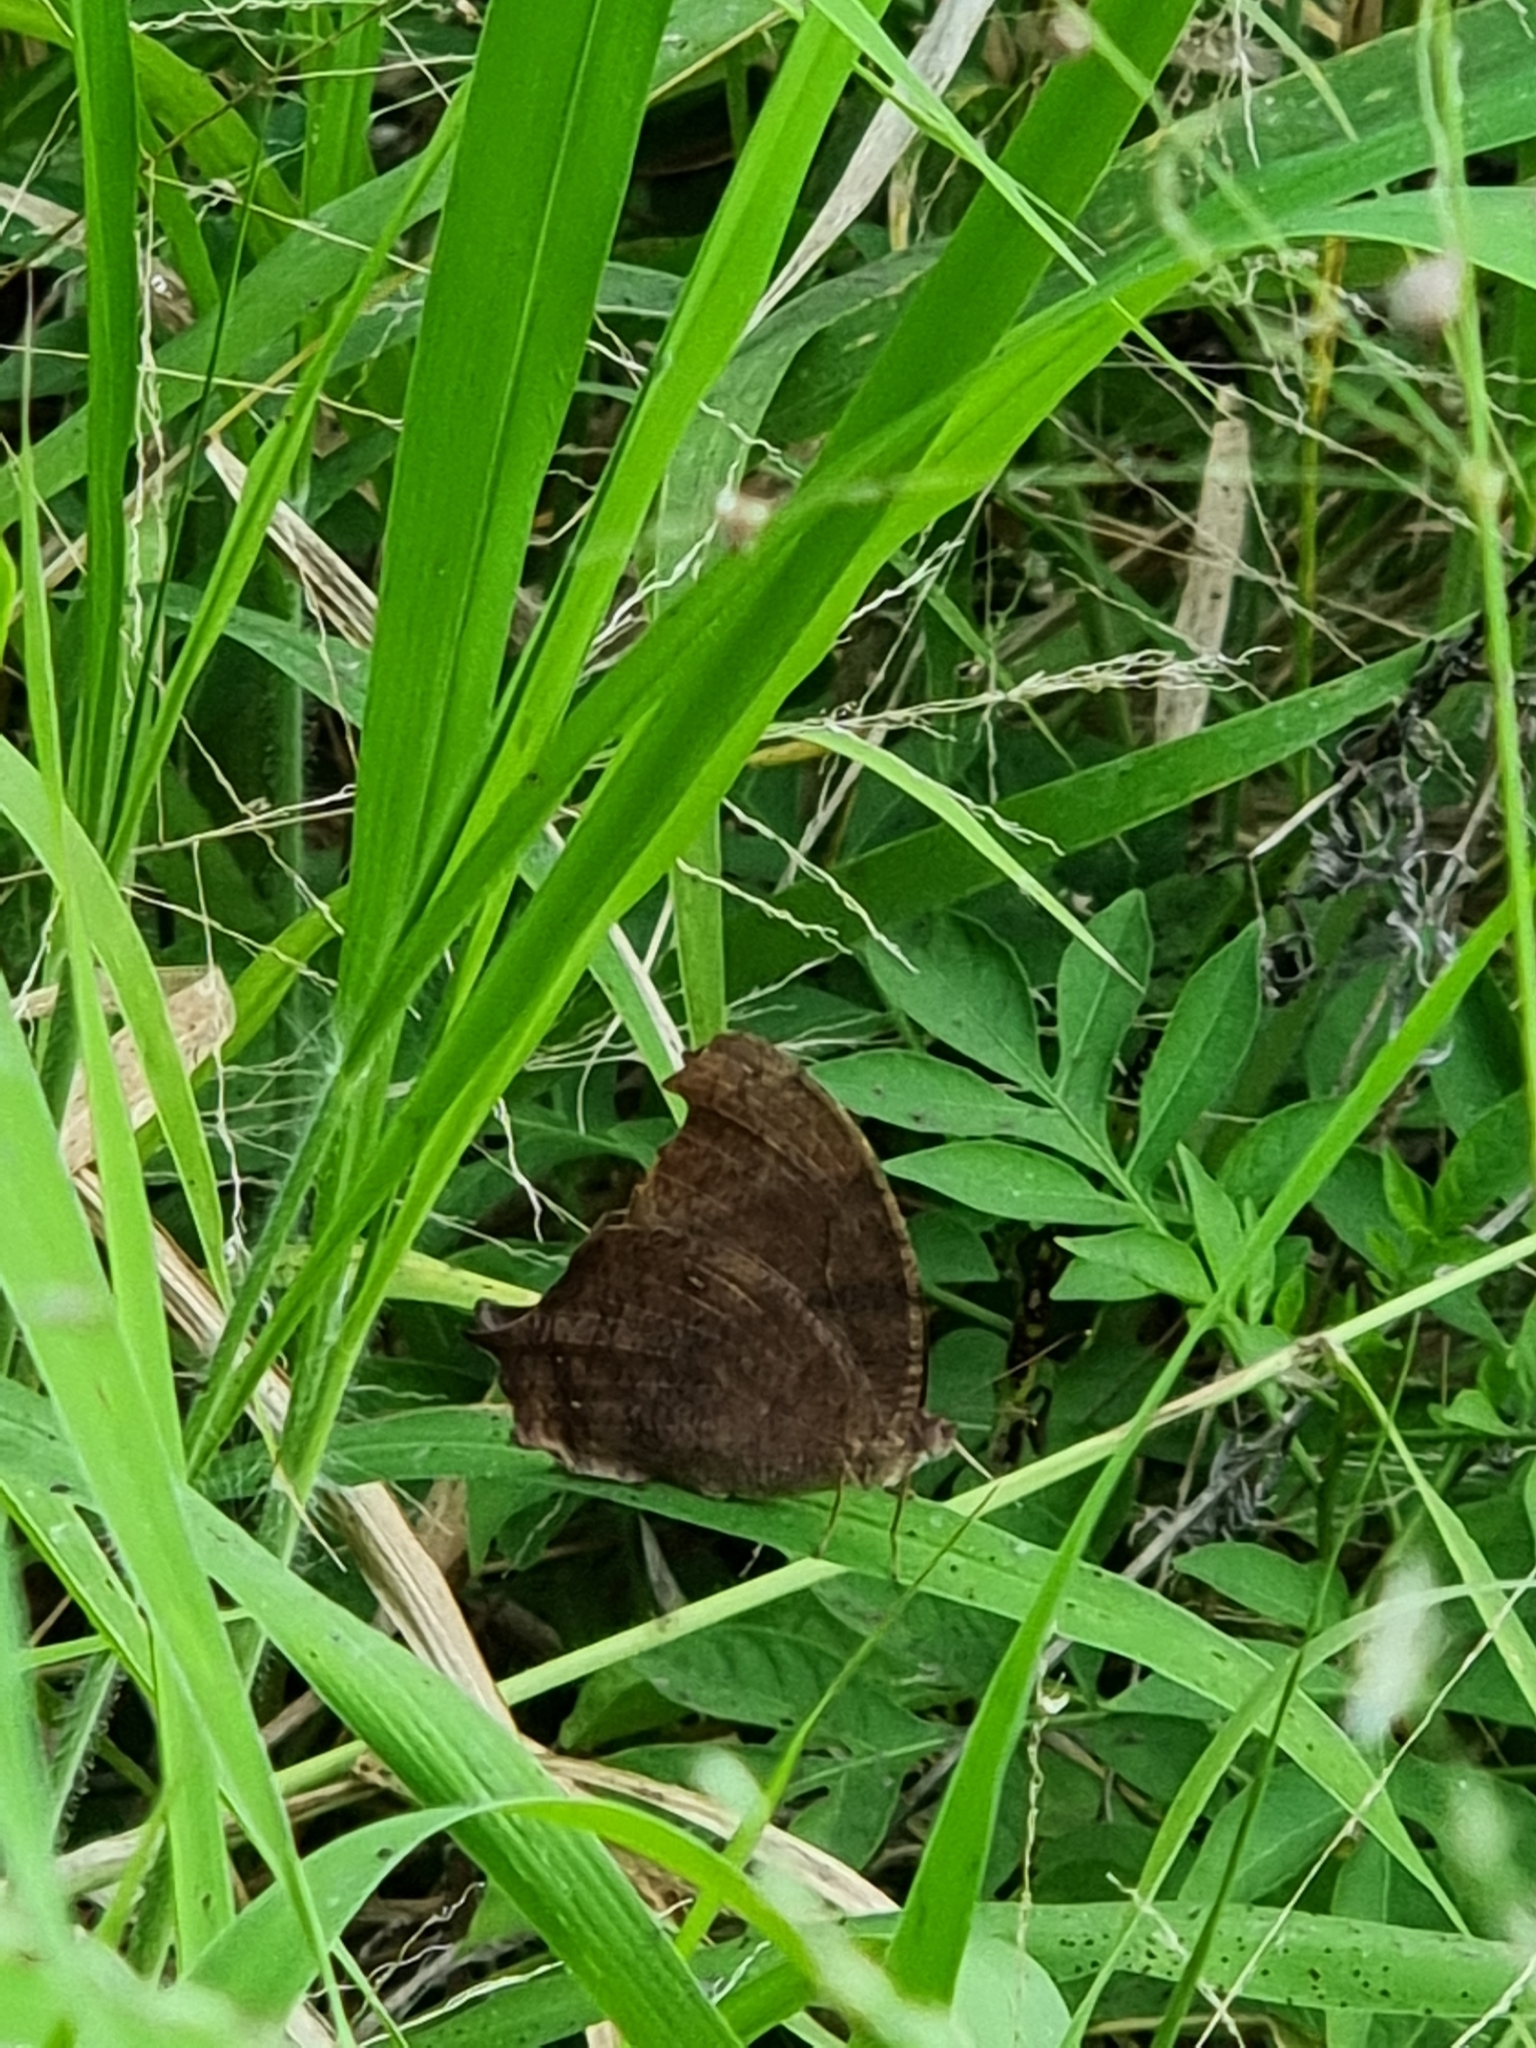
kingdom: Animalia
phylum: Arthropoda
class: Insecta
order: Lepidoptera
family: Nymphalidae
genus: Melanitis
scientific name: Melanitis leda
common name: Twilight brown
